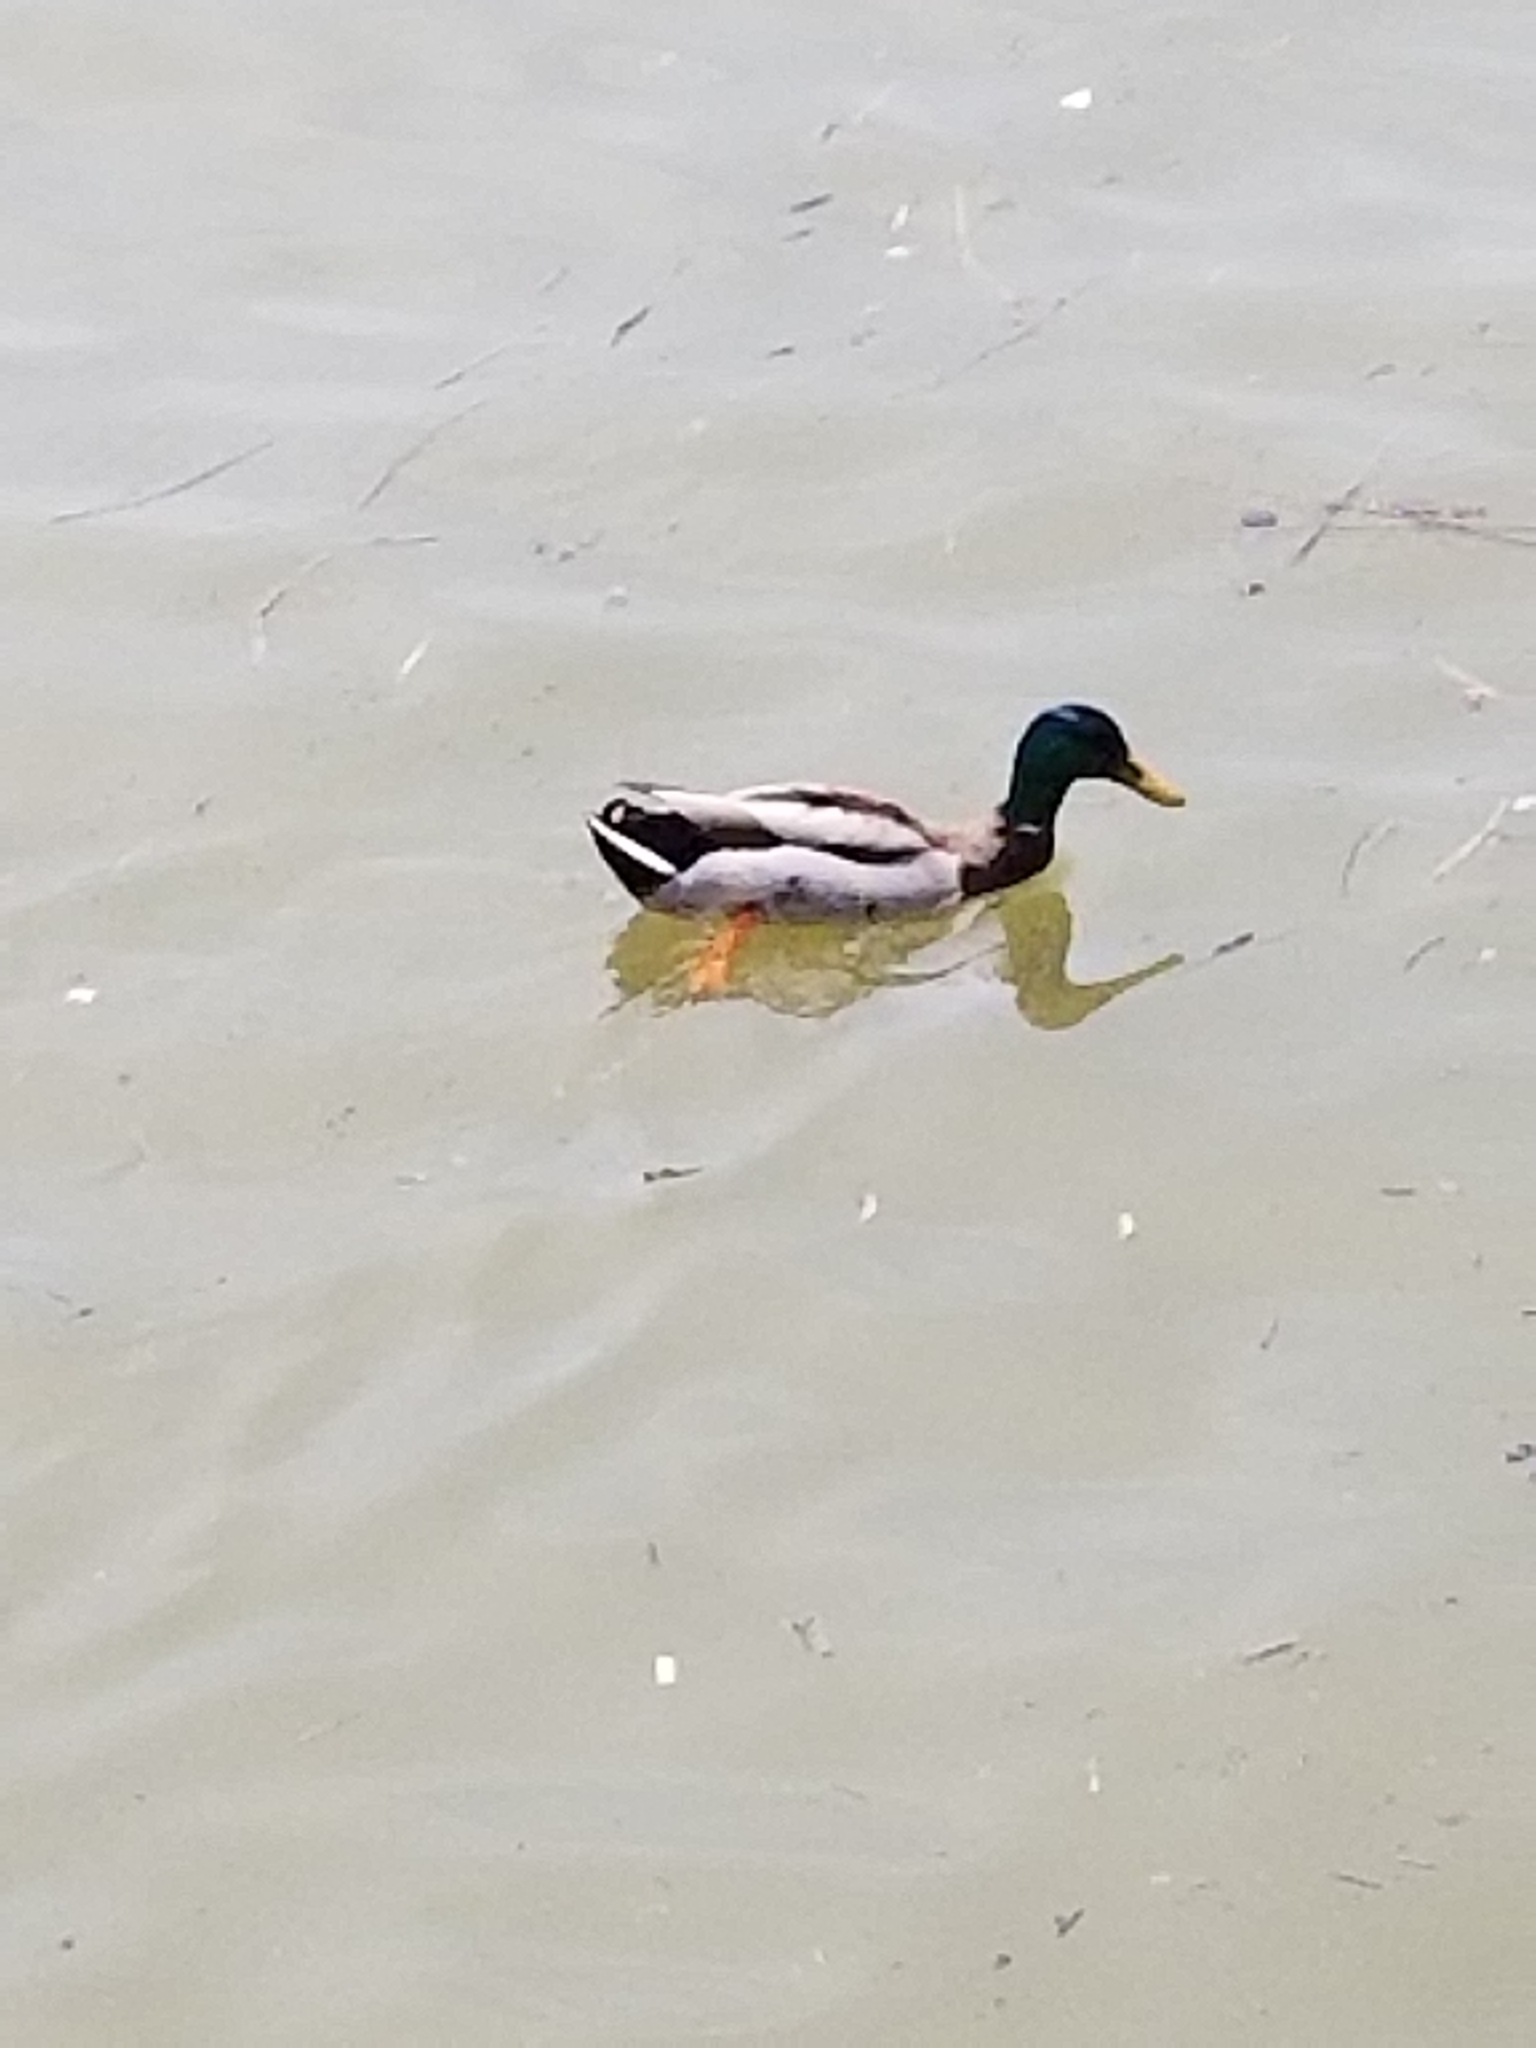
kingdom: Animalia
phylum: Chordata
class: Aves
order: Anseriformes
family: Anatidae
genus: Anas
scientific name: Anas platyrhynchos
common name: Mallard
